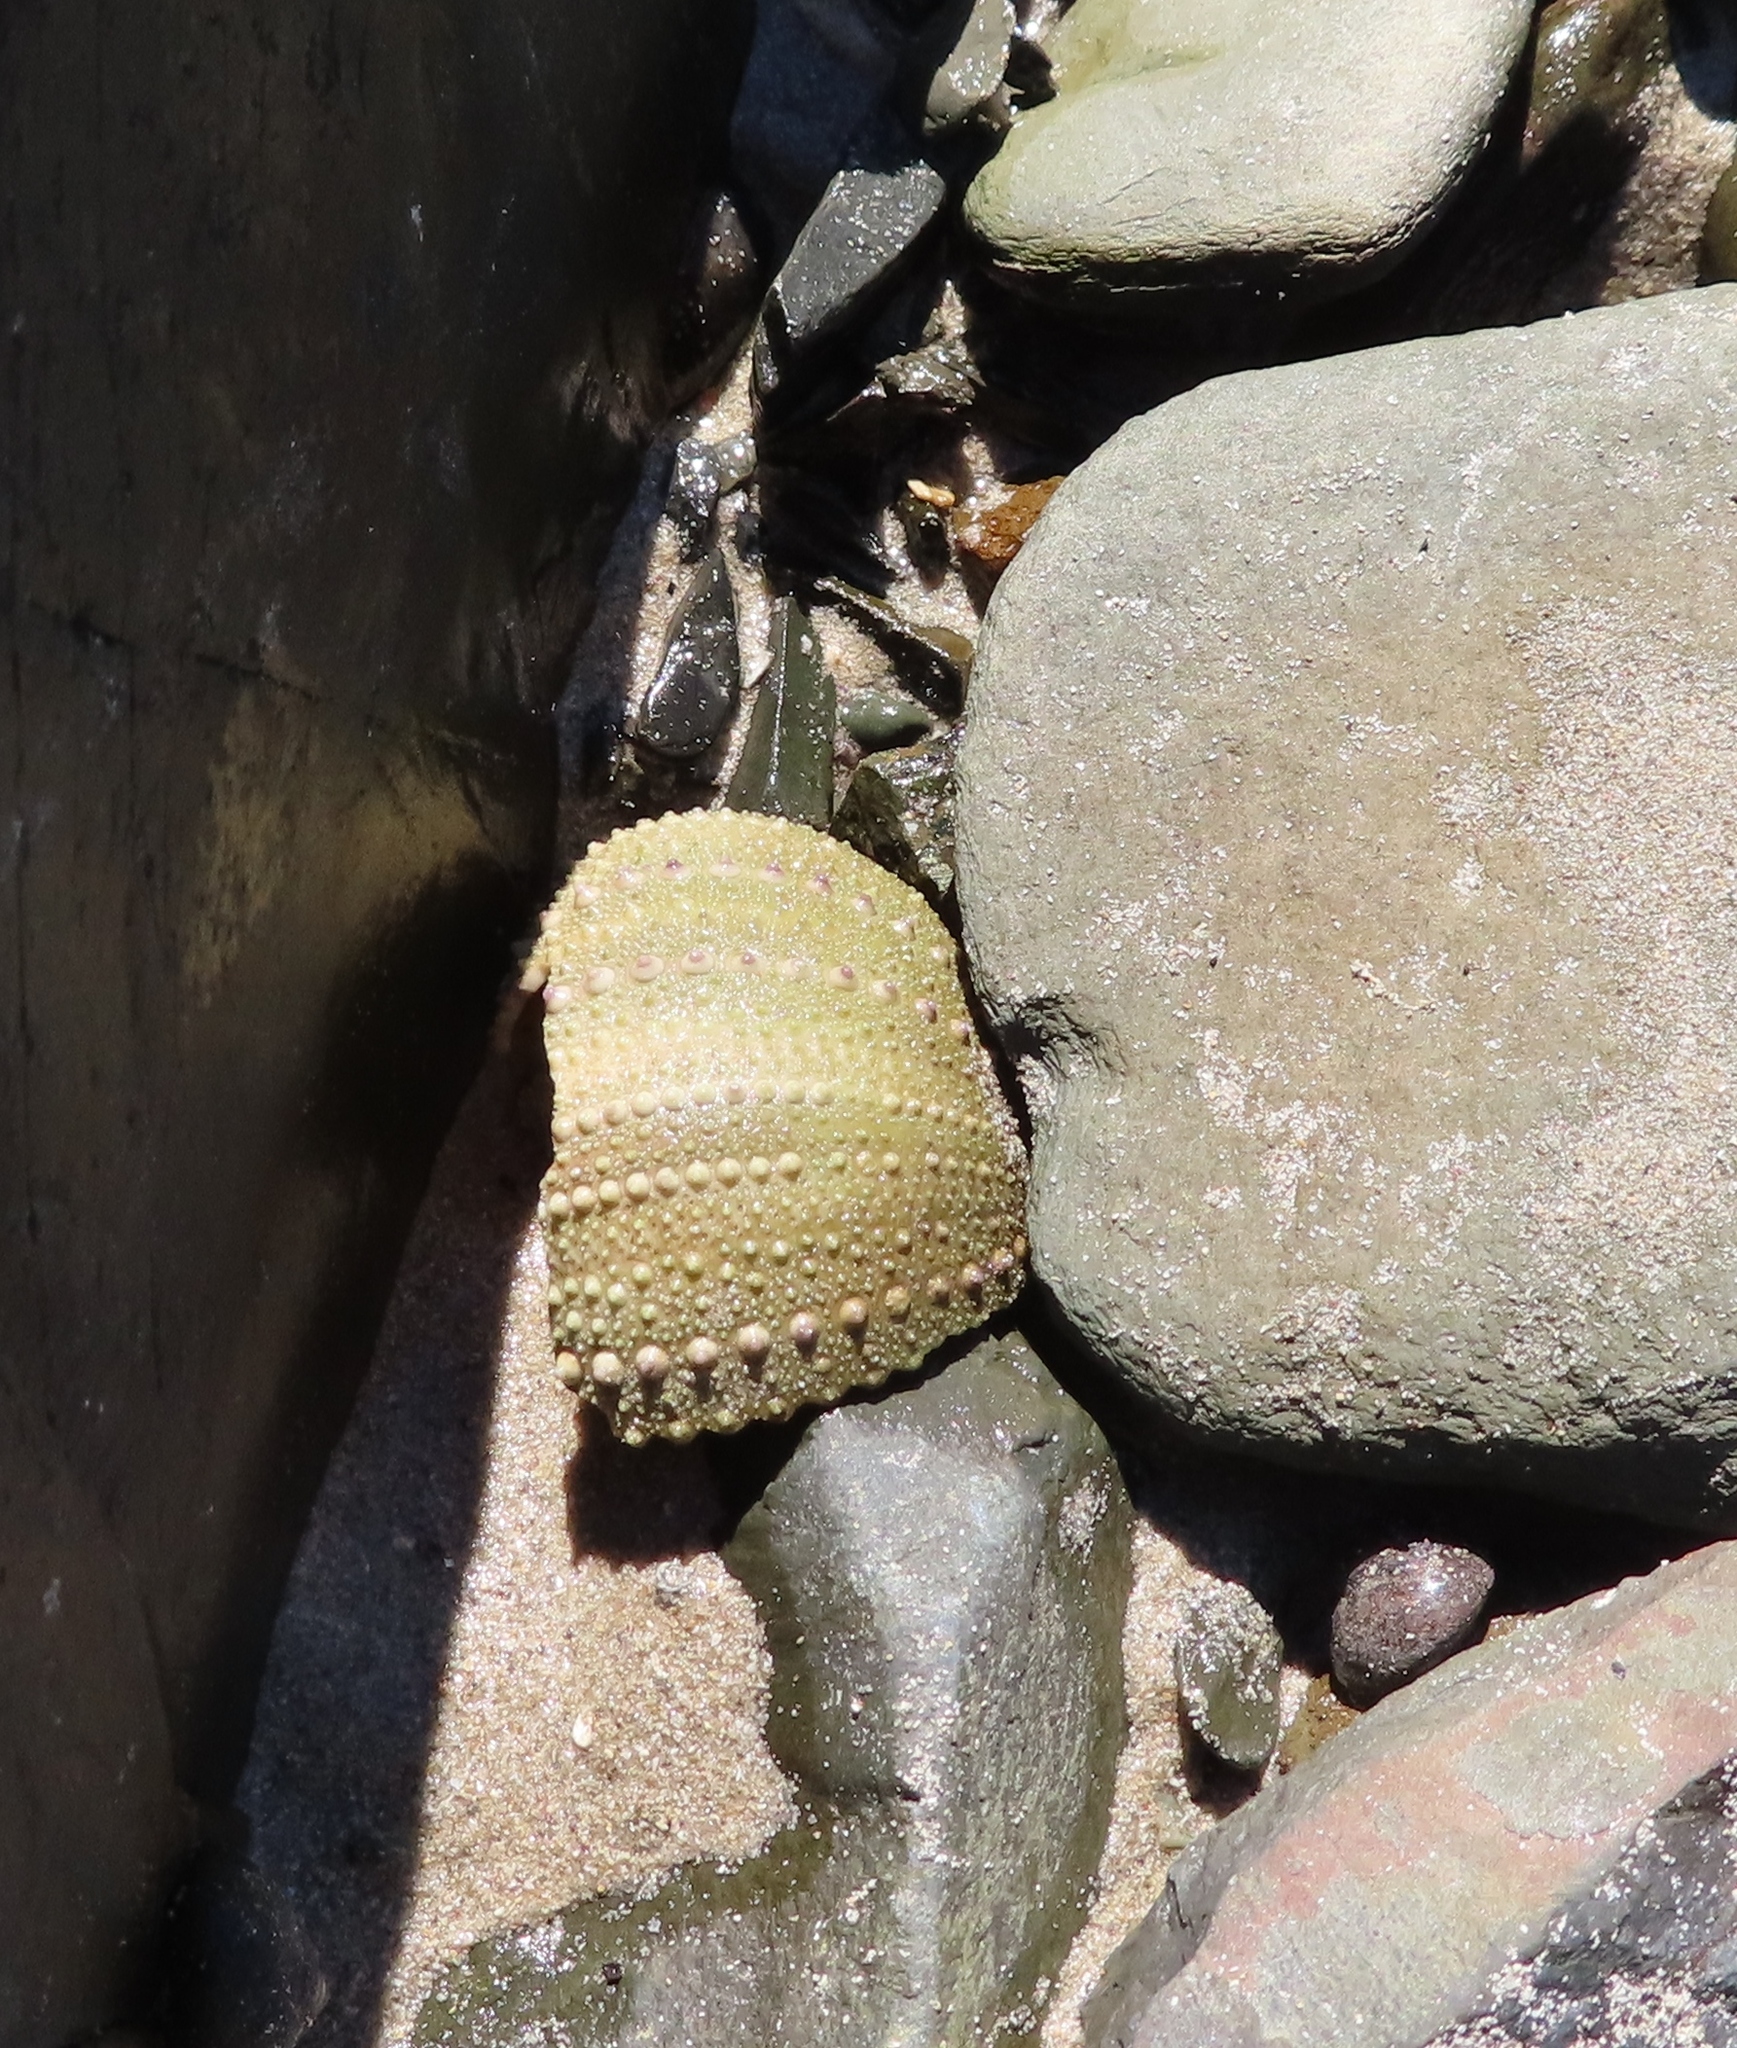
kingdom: Animalia
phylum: Echinodermata
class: Echinoidea
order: Camarodonta
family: Parechinidae
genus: Parechinus
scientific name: Parechinus angulosus
